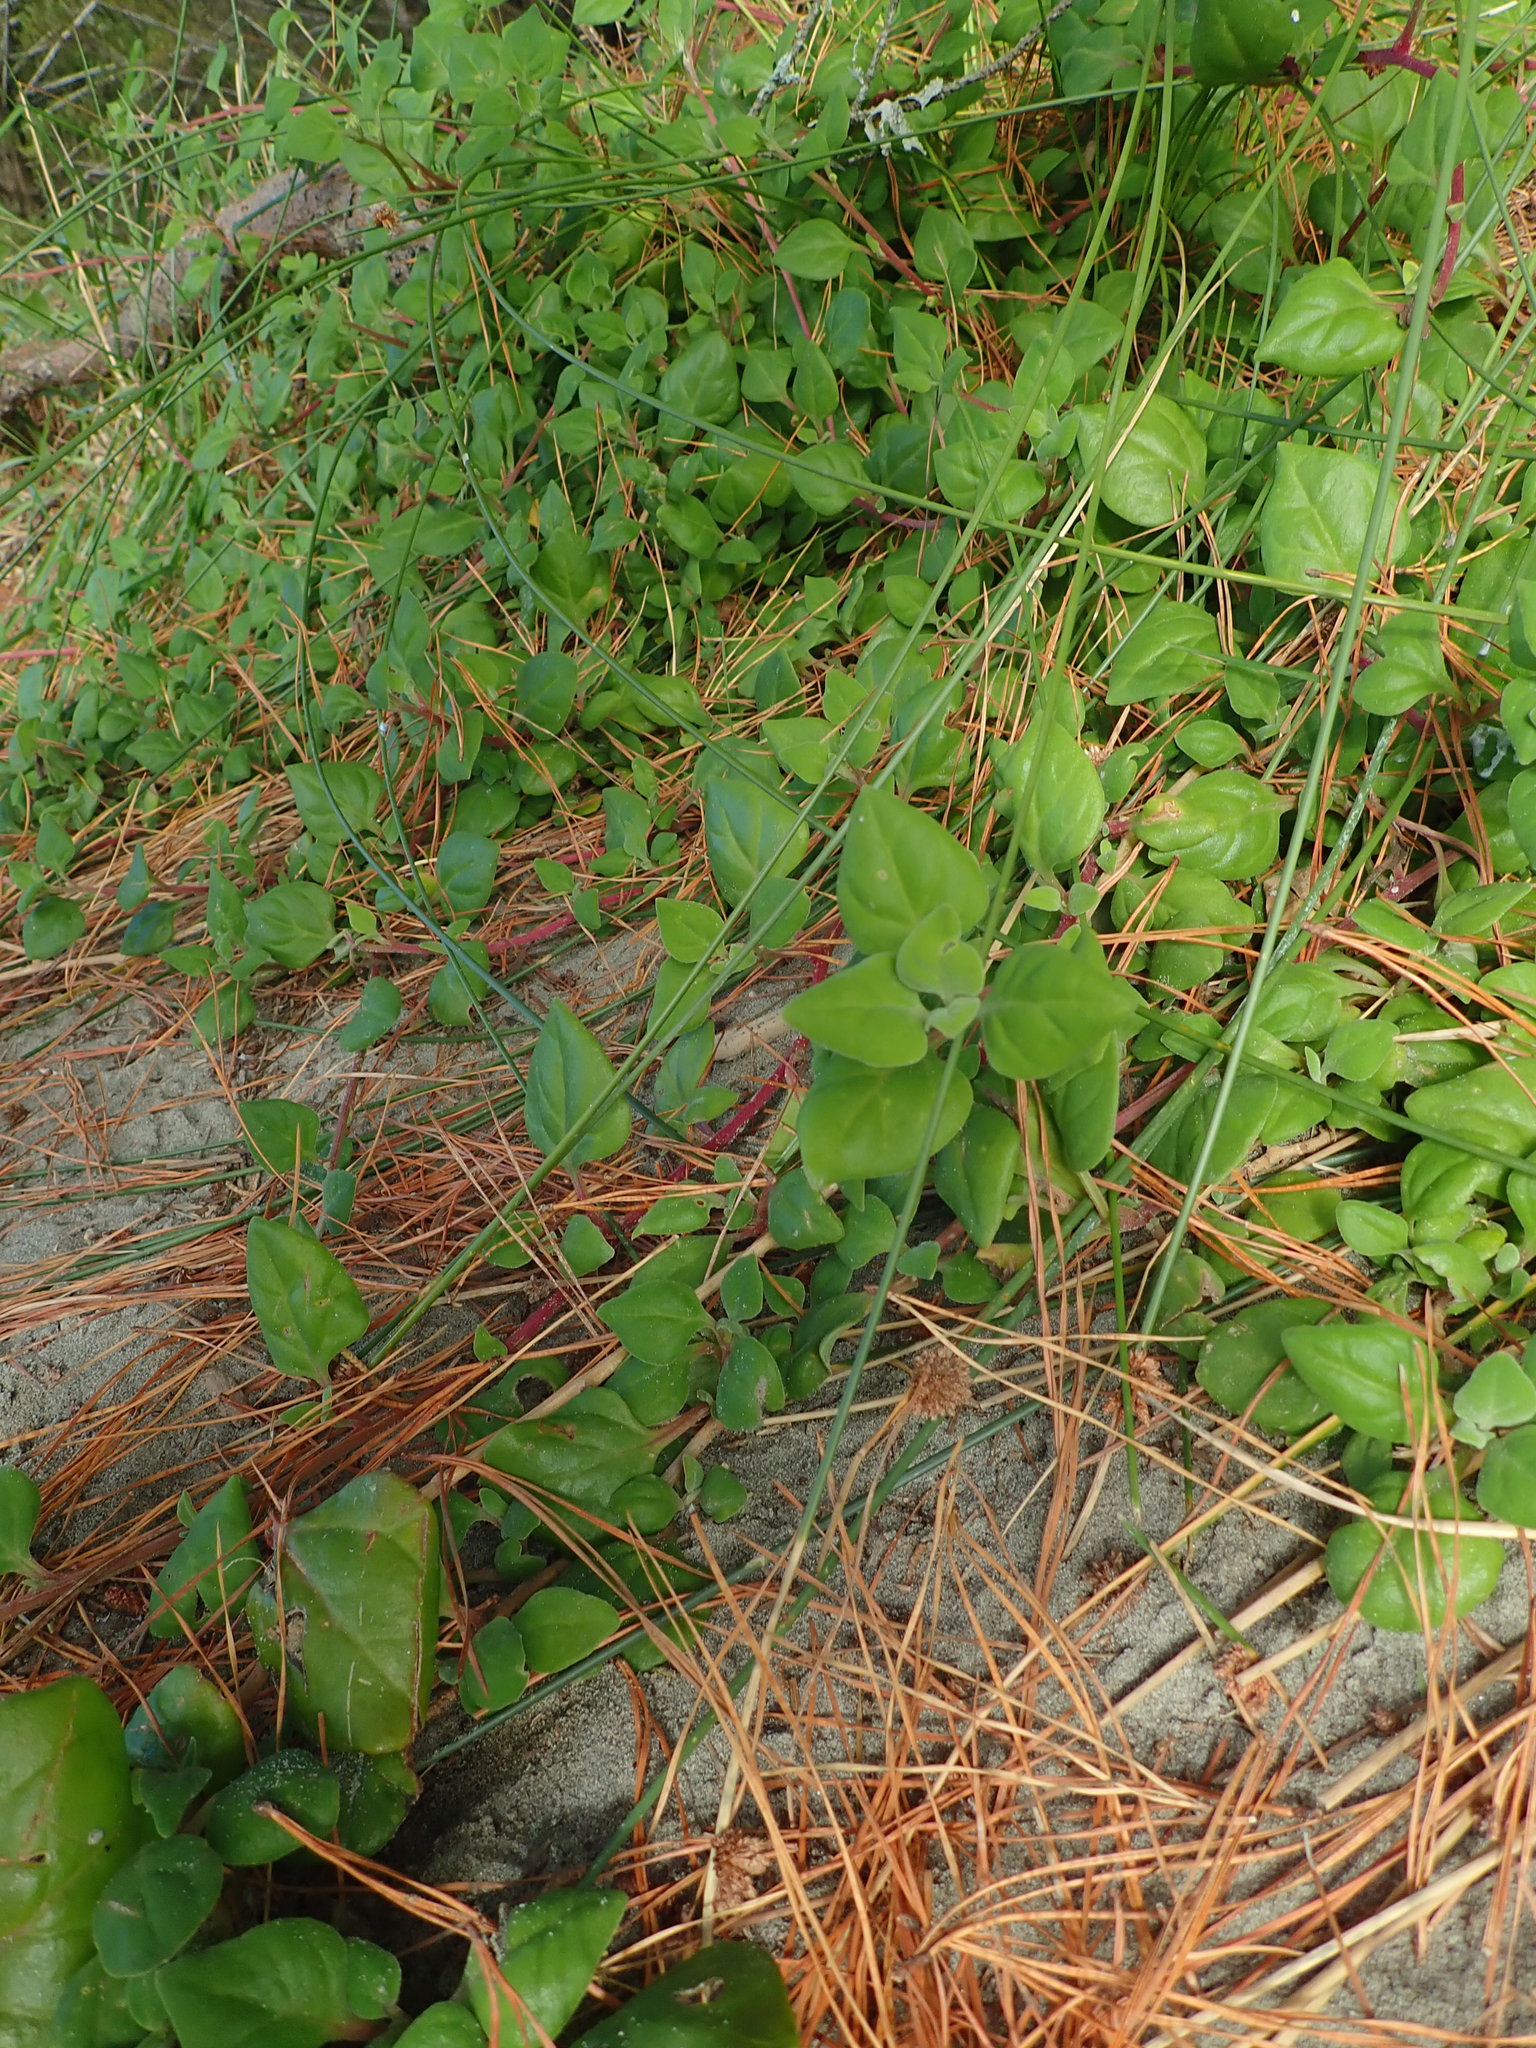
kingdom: Plantae
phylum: Tracheophyta
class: Magnoliopsida
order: Caryophyllales
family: Aizoaceae
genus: Tetragonia
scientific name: Tetragonia implexicoma
